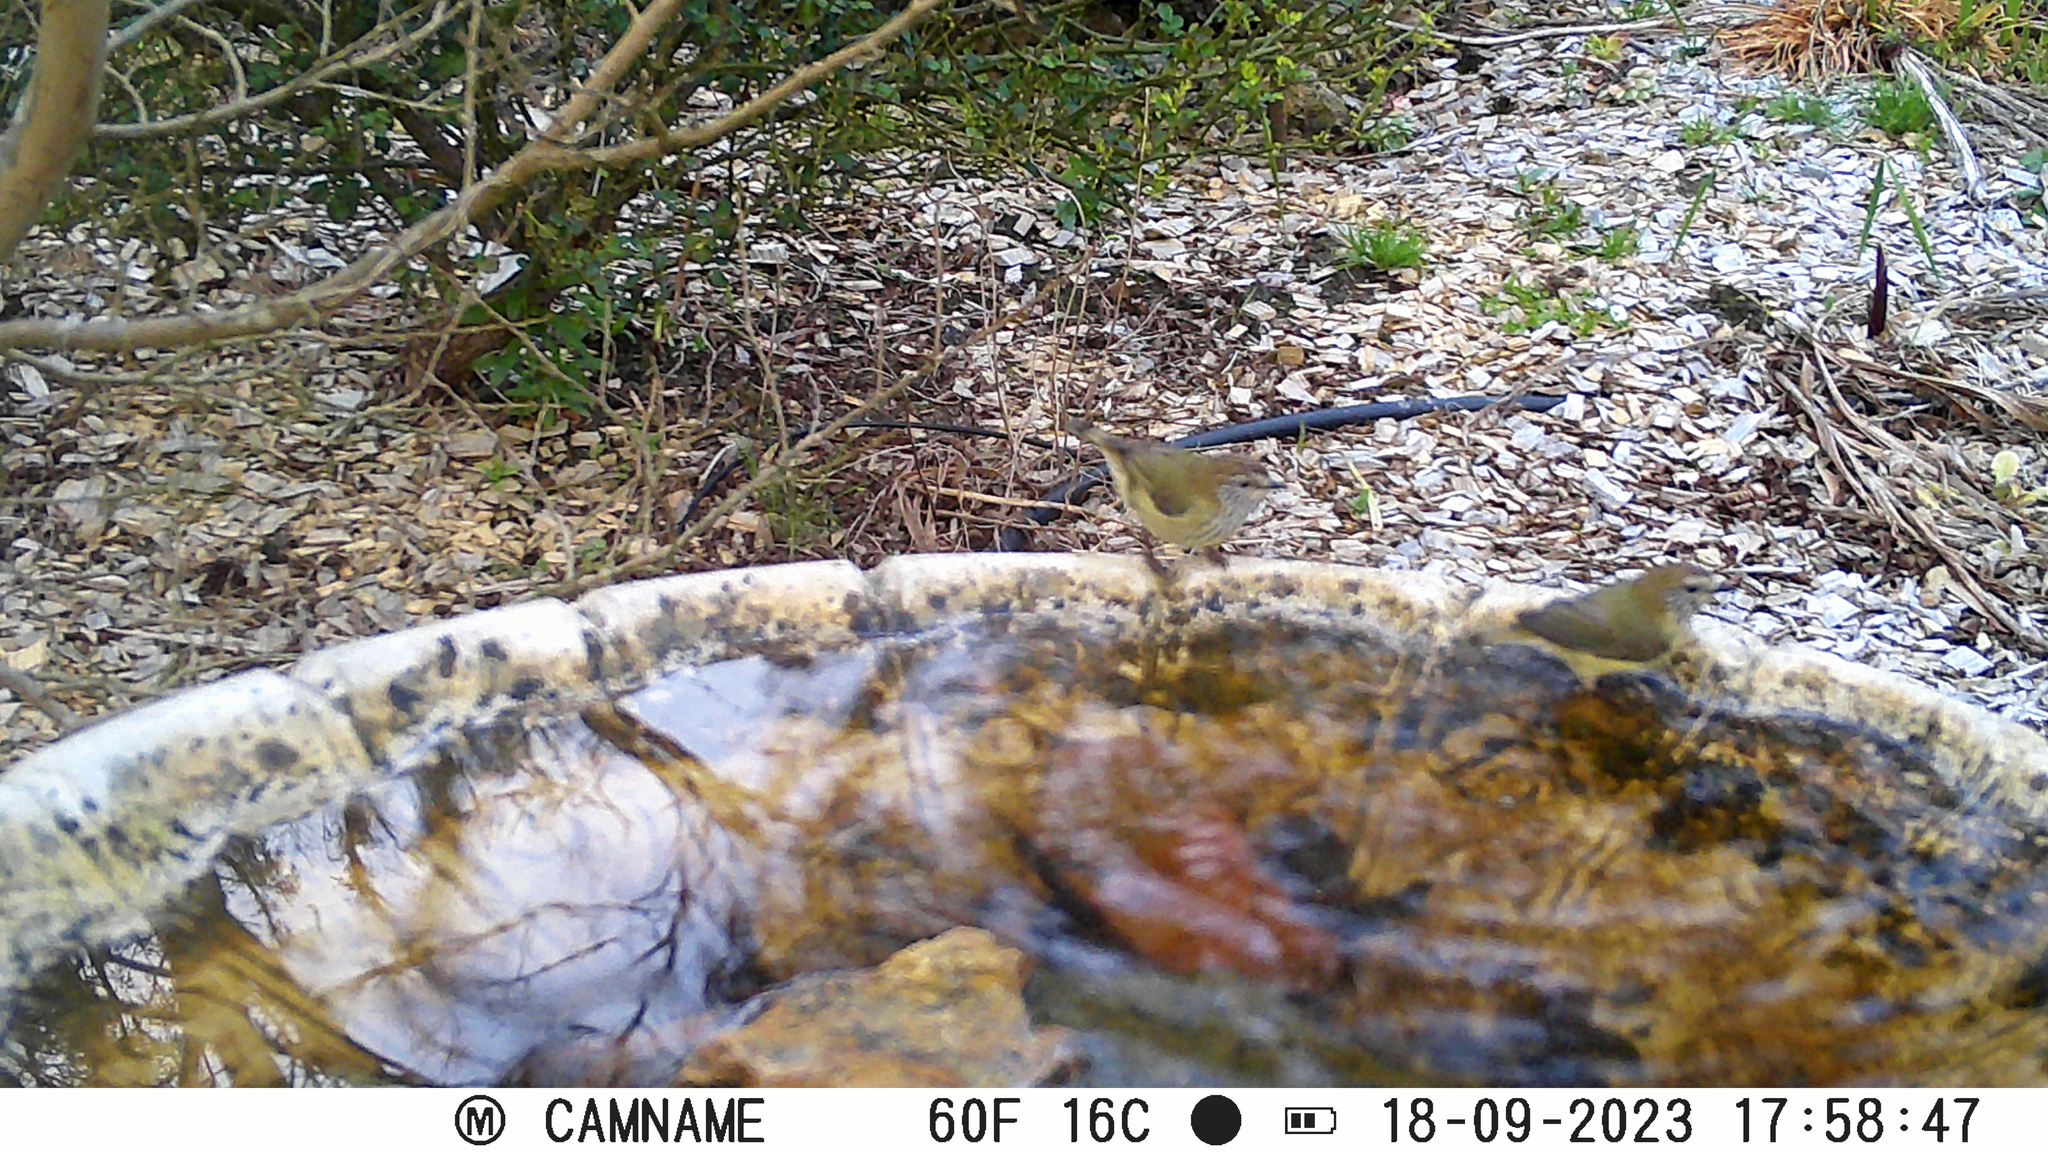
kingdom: Animalia
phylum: Chordata
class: Aves
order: Passeriformes
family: Acanthizidae
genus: Acanthiza
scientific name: Acanthiza lineata
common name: Striated thornbill
